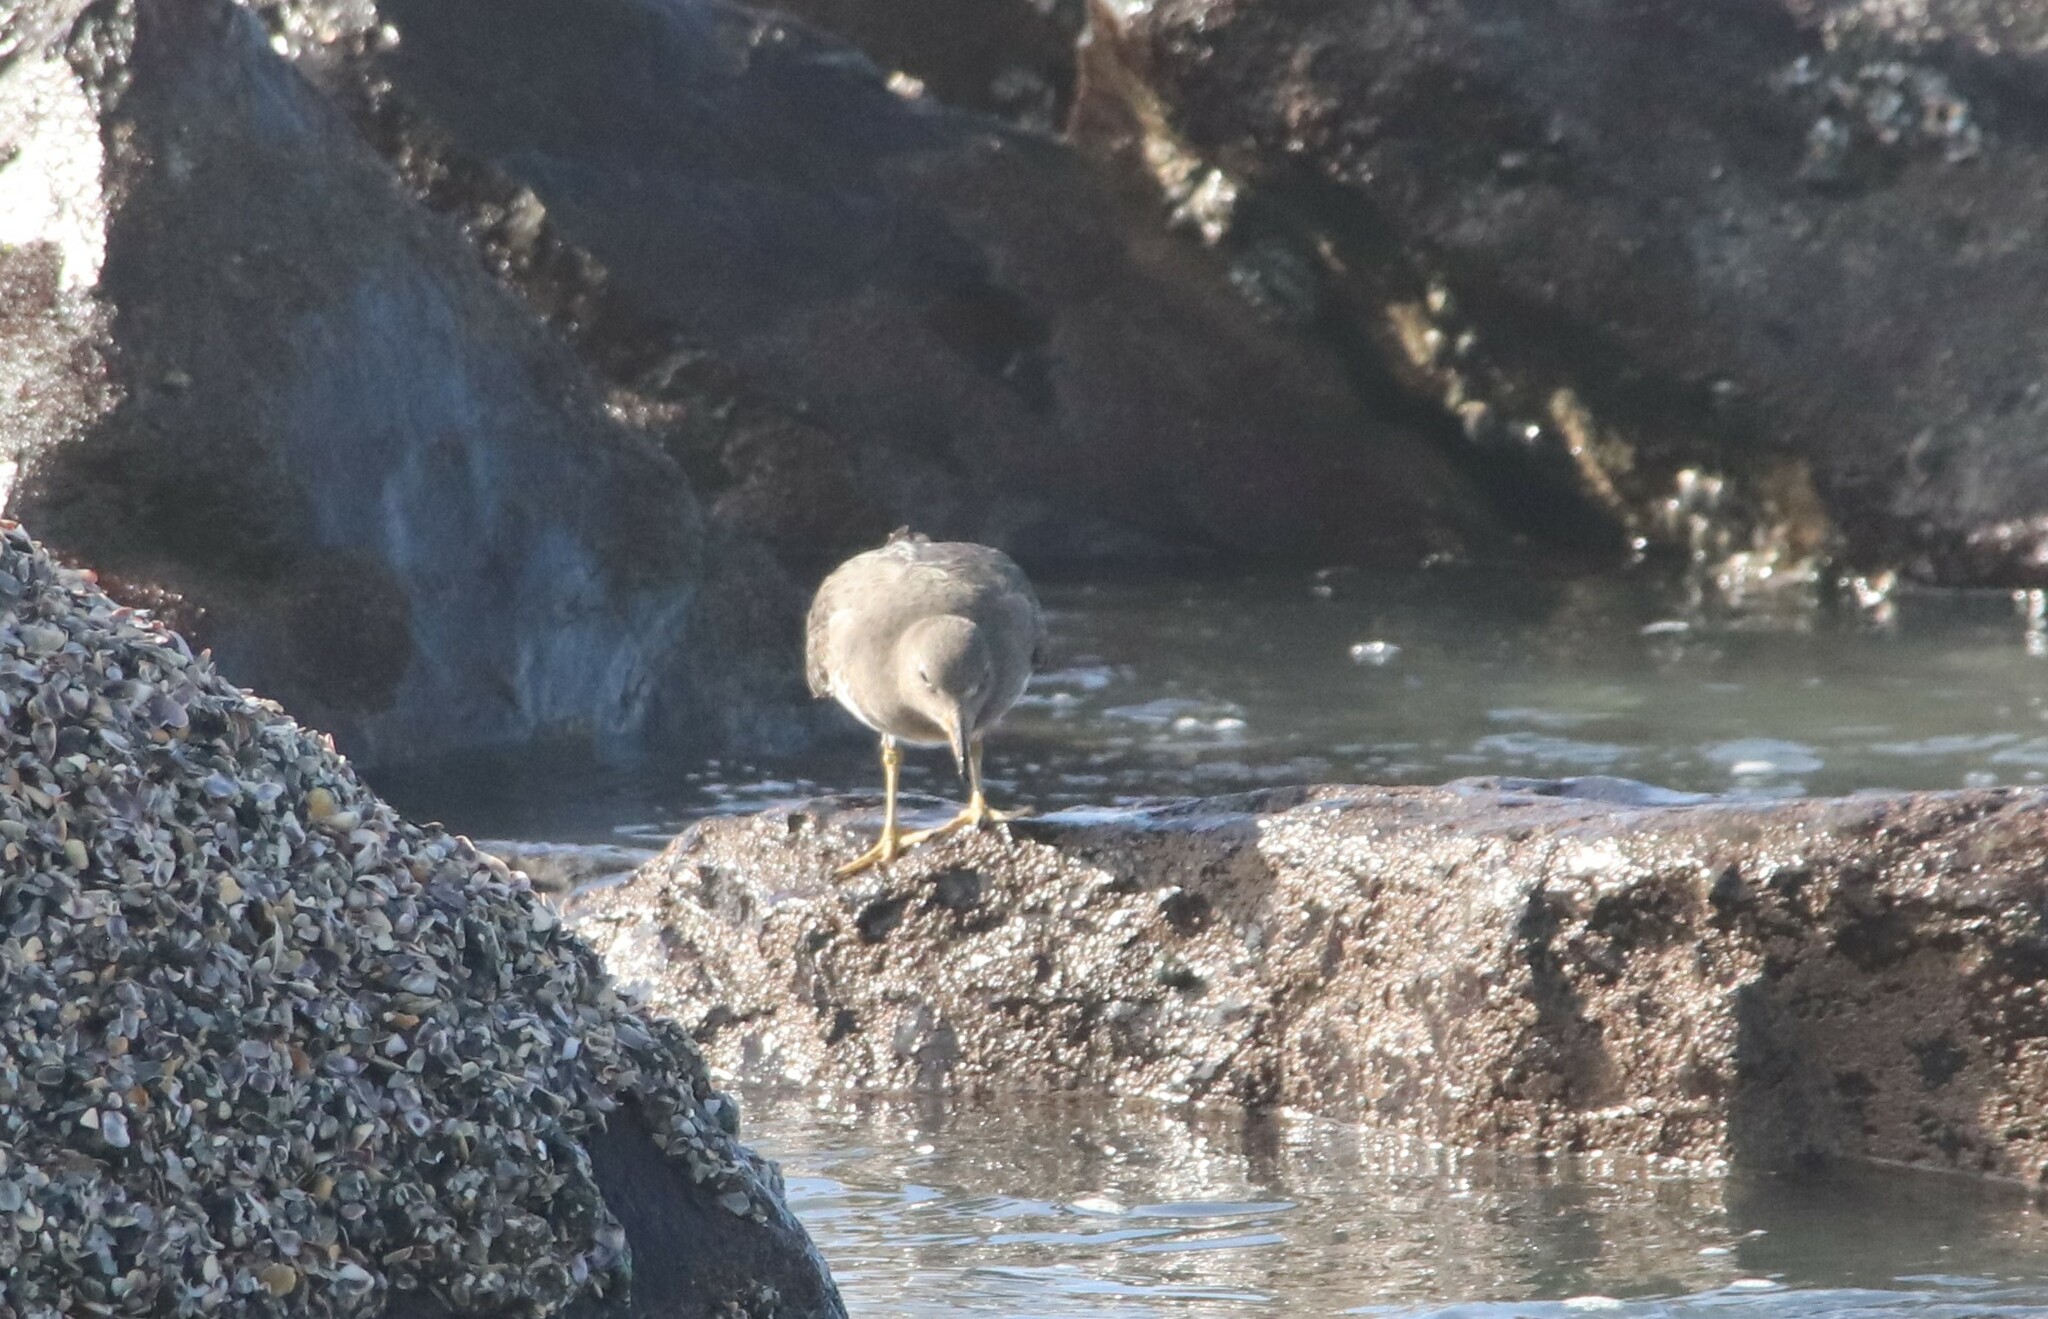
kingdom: Animalia
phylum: Chordata
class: Aves
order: Charadriiformes
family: Scolopacidae
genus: Calidris
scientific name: Calidris virgata
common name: Surfbird
